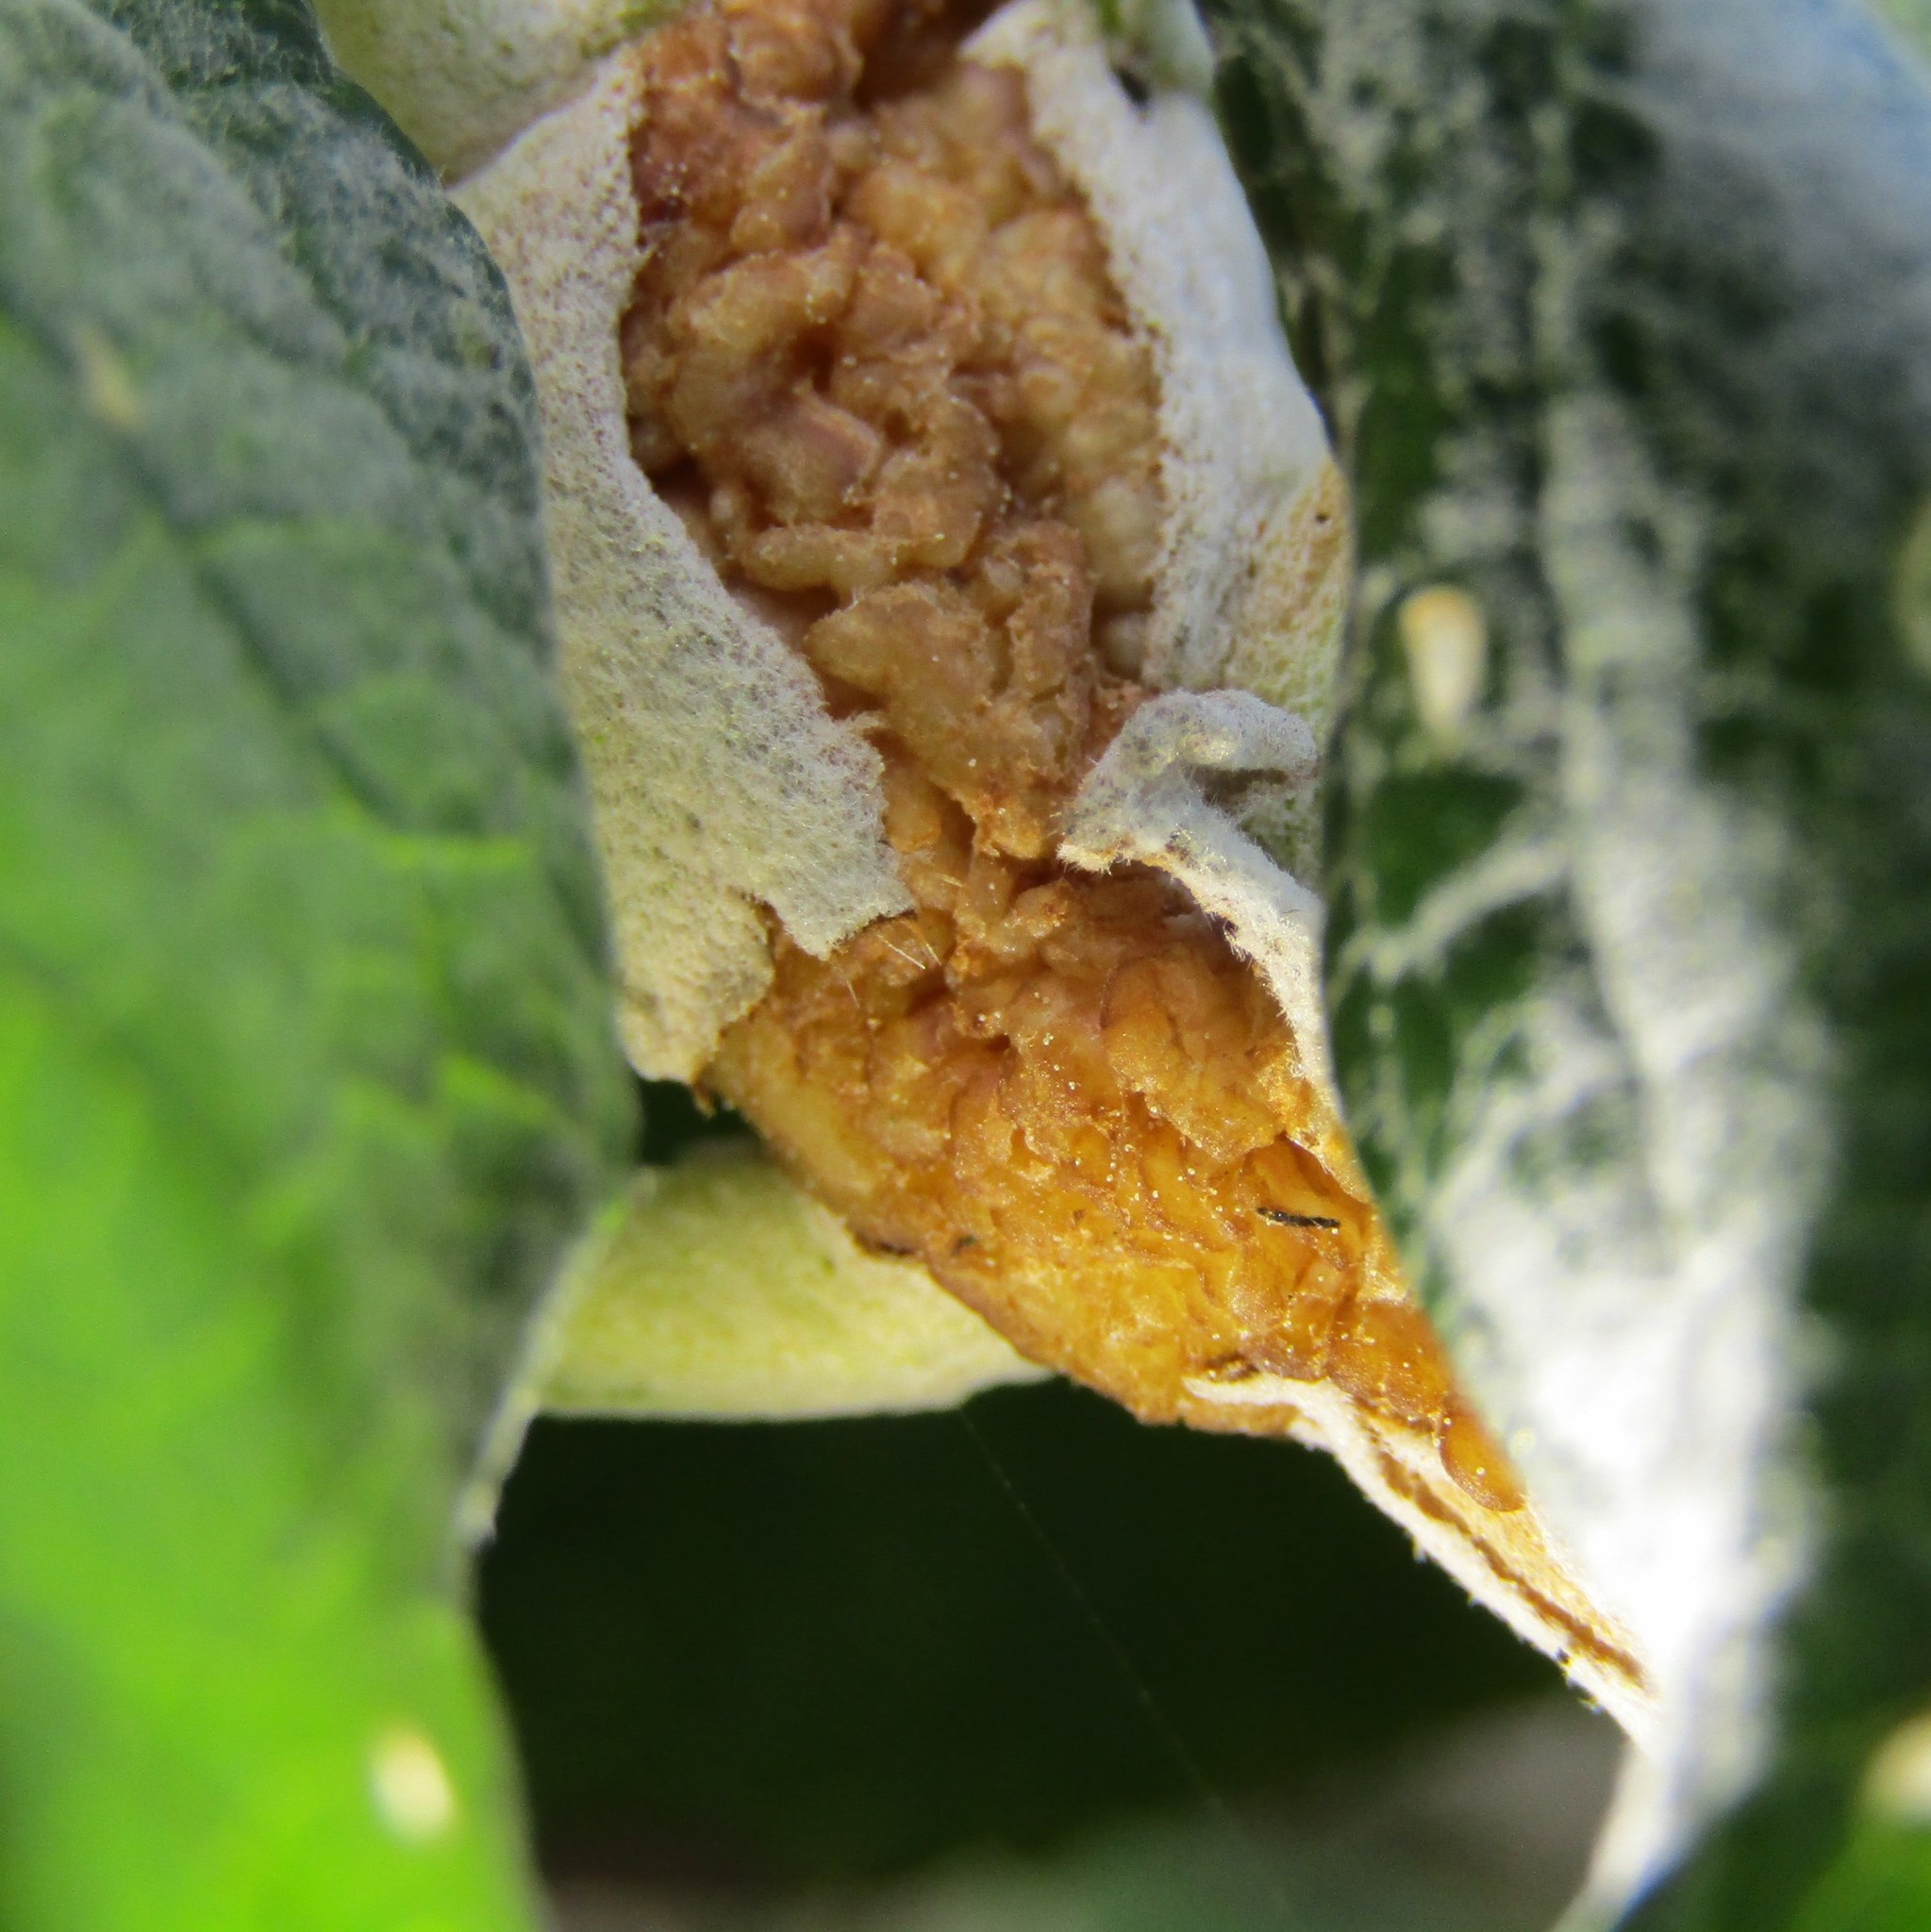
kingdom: Plantae
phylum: Tracheophyta
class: Magnoliopsida
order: Lamiales
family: Scrophulariaceae
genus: Buddleja
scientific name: Buddleja davidii
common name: Butterfly-bush
